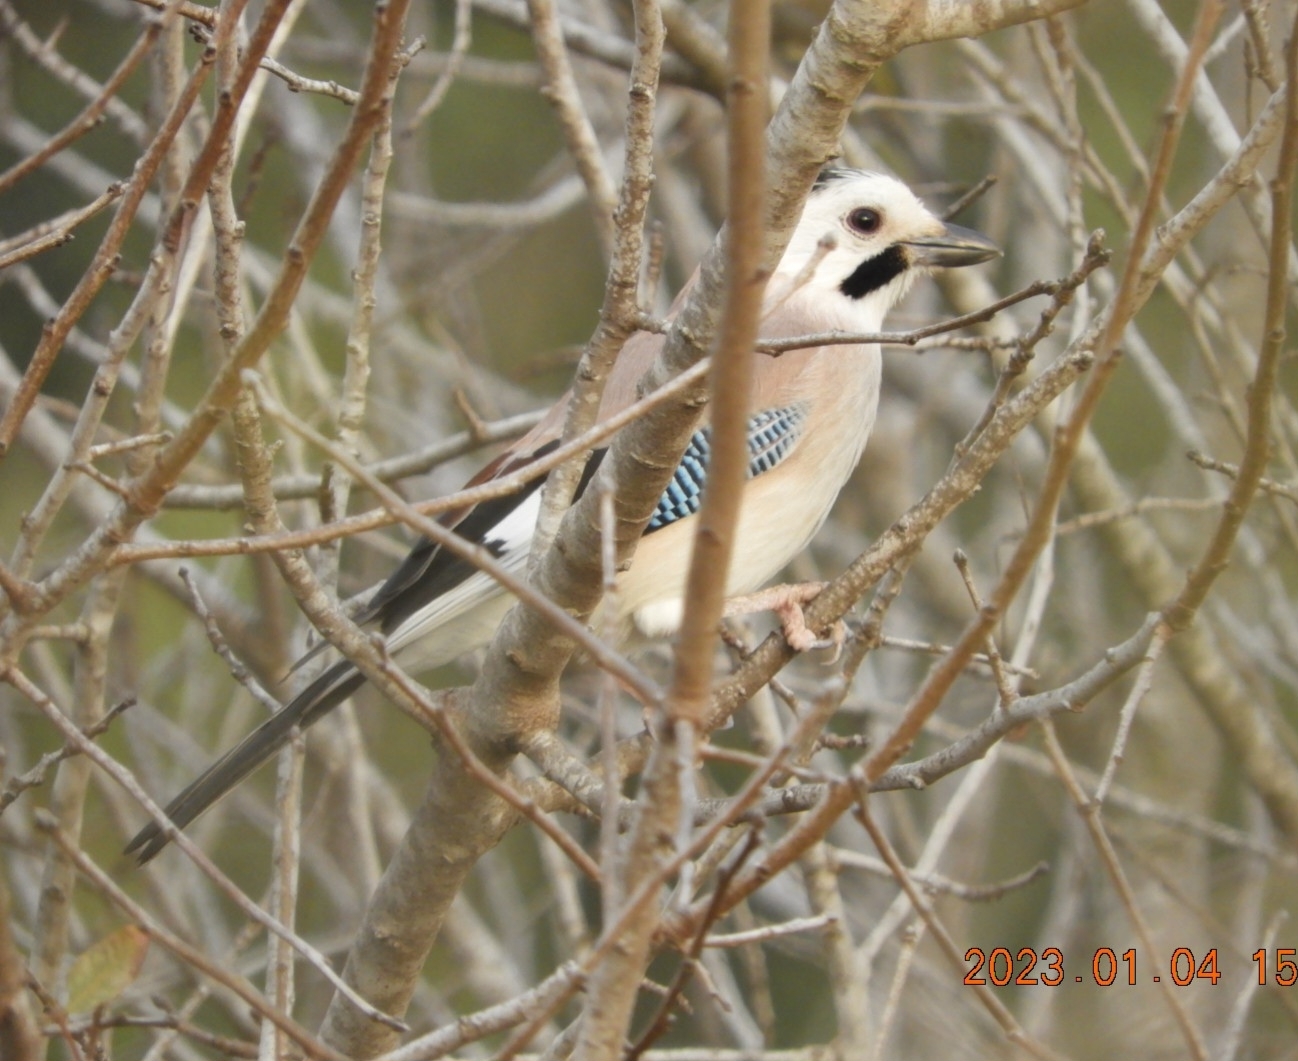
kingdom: Animalia
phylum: Chordata
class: Aves
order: Passeriformes
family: Corvidae
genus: Garrulus
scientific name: Garrulus glandarius
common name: Eurasian jay
